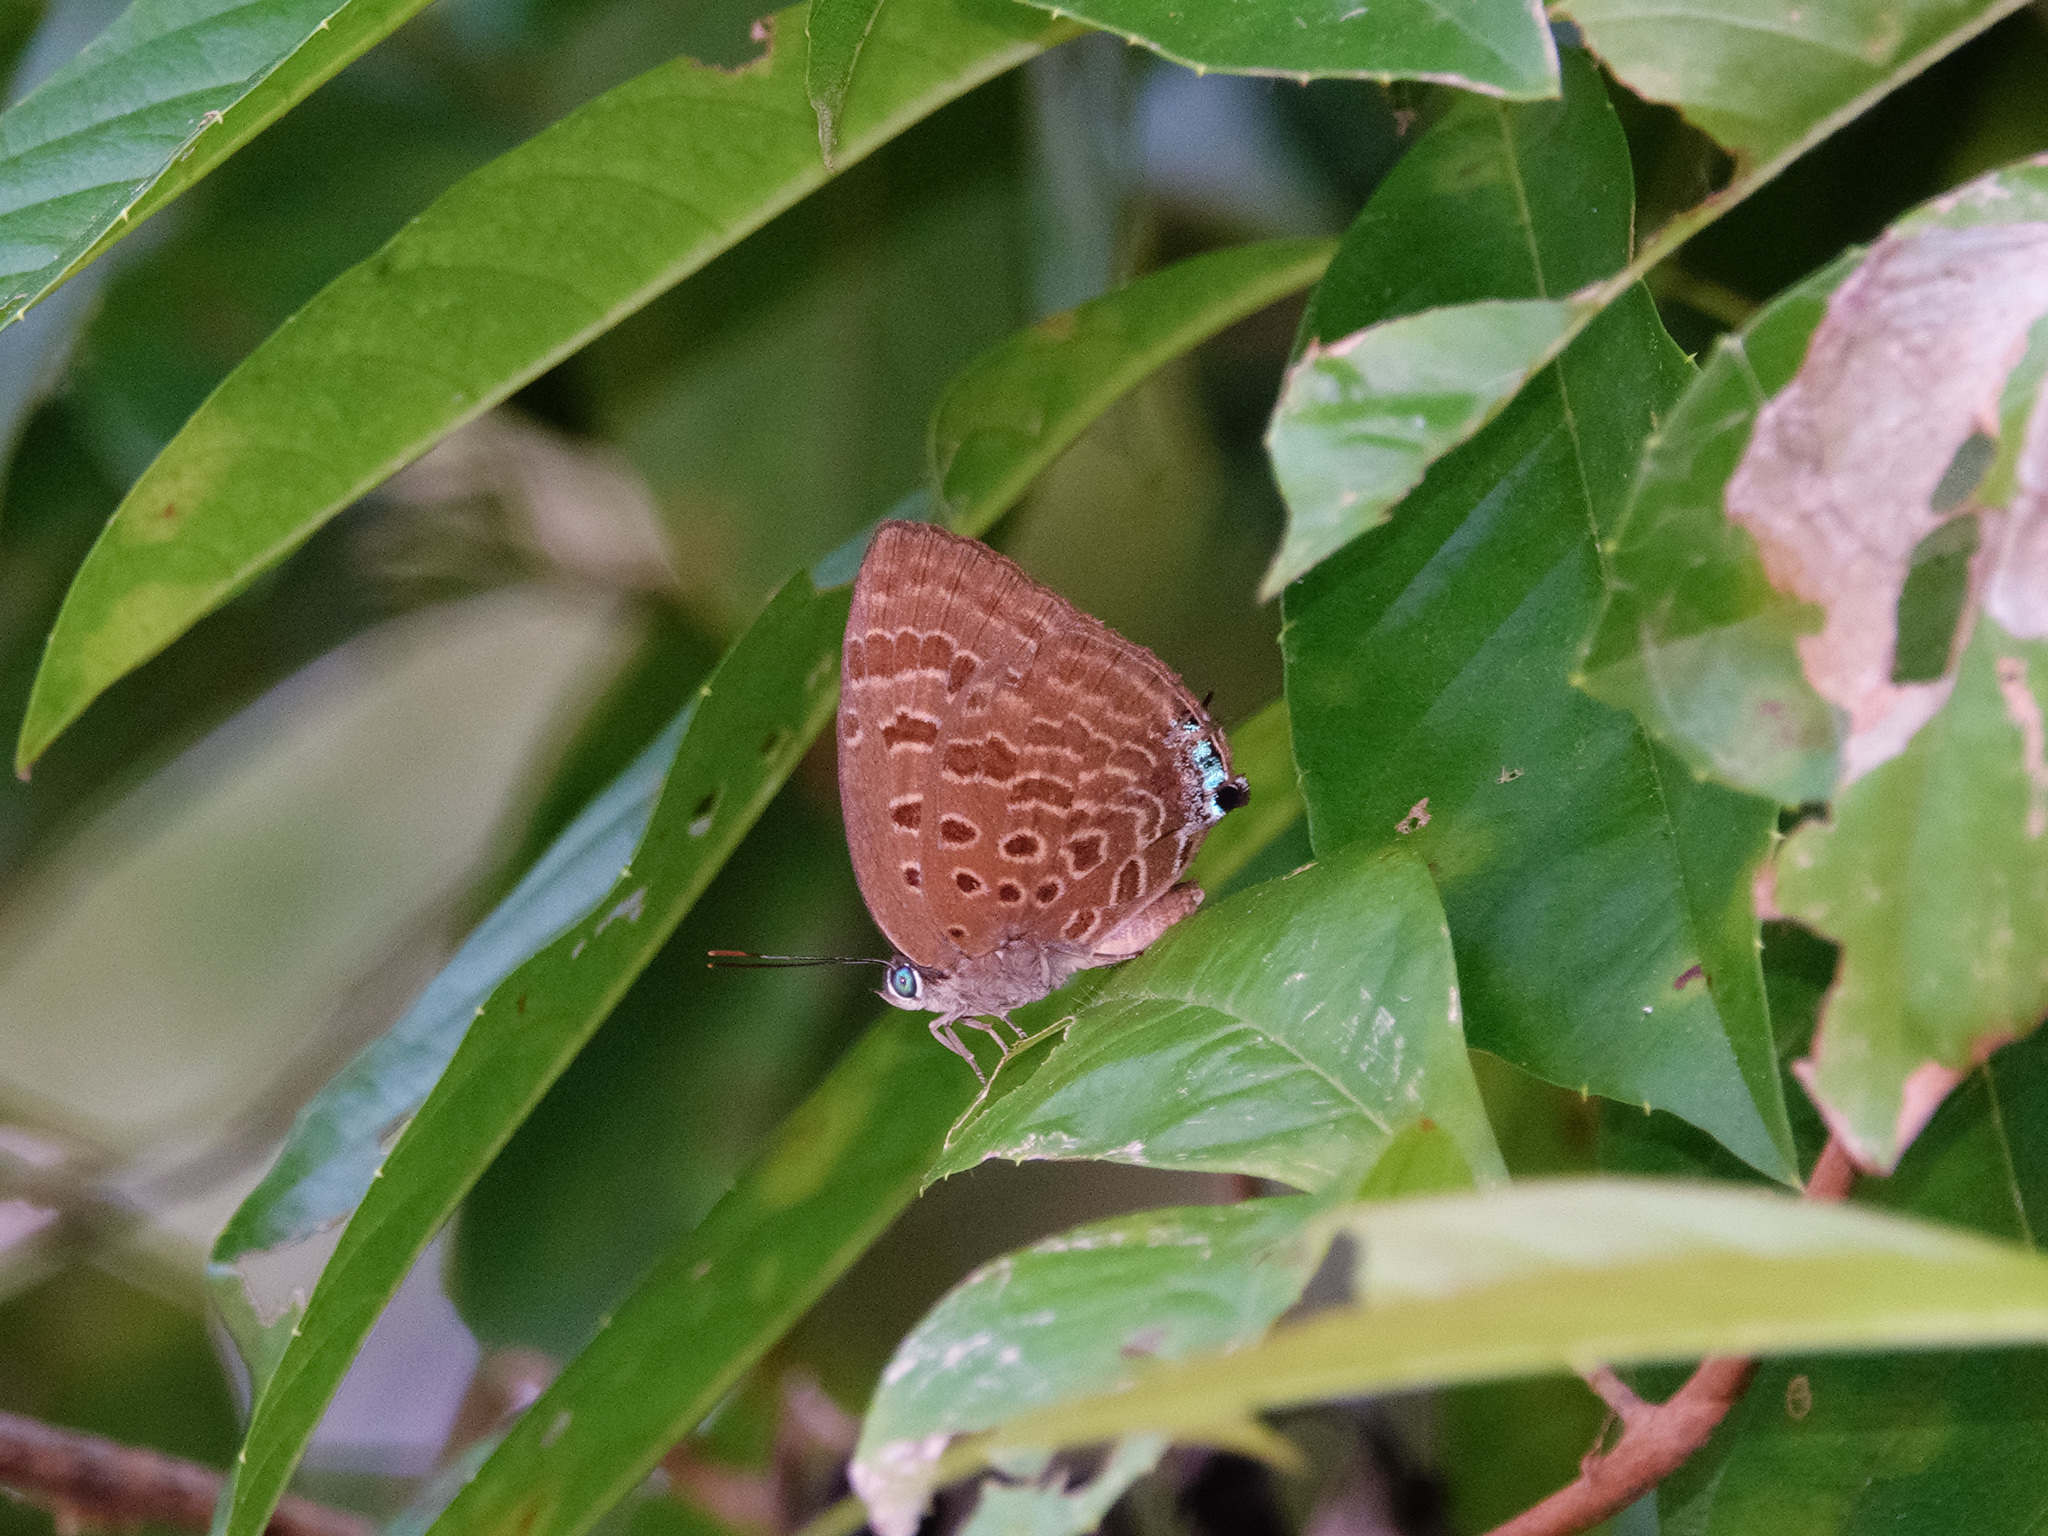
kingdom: Animalia
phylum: Arthropoda
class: Insecta
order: Lepidoptera
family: Lycaenidae
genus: Arhopala
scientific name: Arhopala athada
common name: Vinous oakblue
